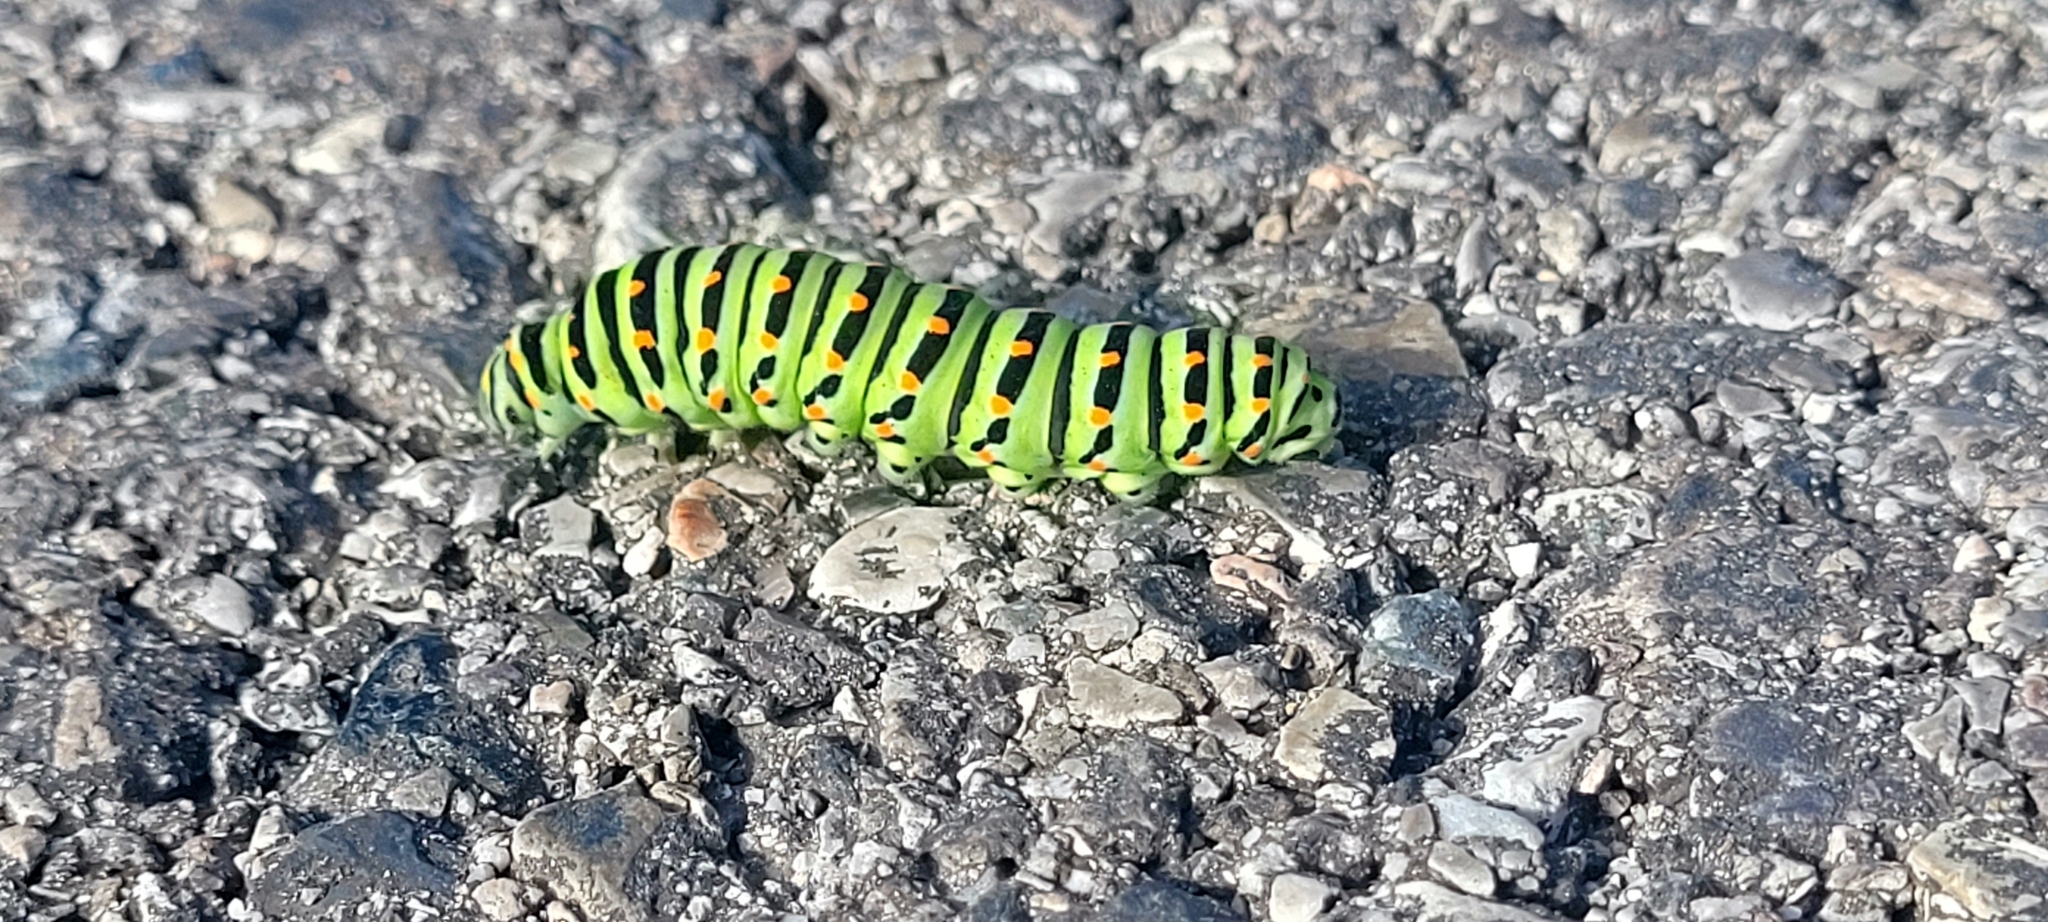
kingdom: Animalia
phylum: Arthropoda
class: Insecta
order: Lepidoptera
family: Papilionidae
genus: Papilio
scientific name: Papilio machaon
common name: Swallowtail
